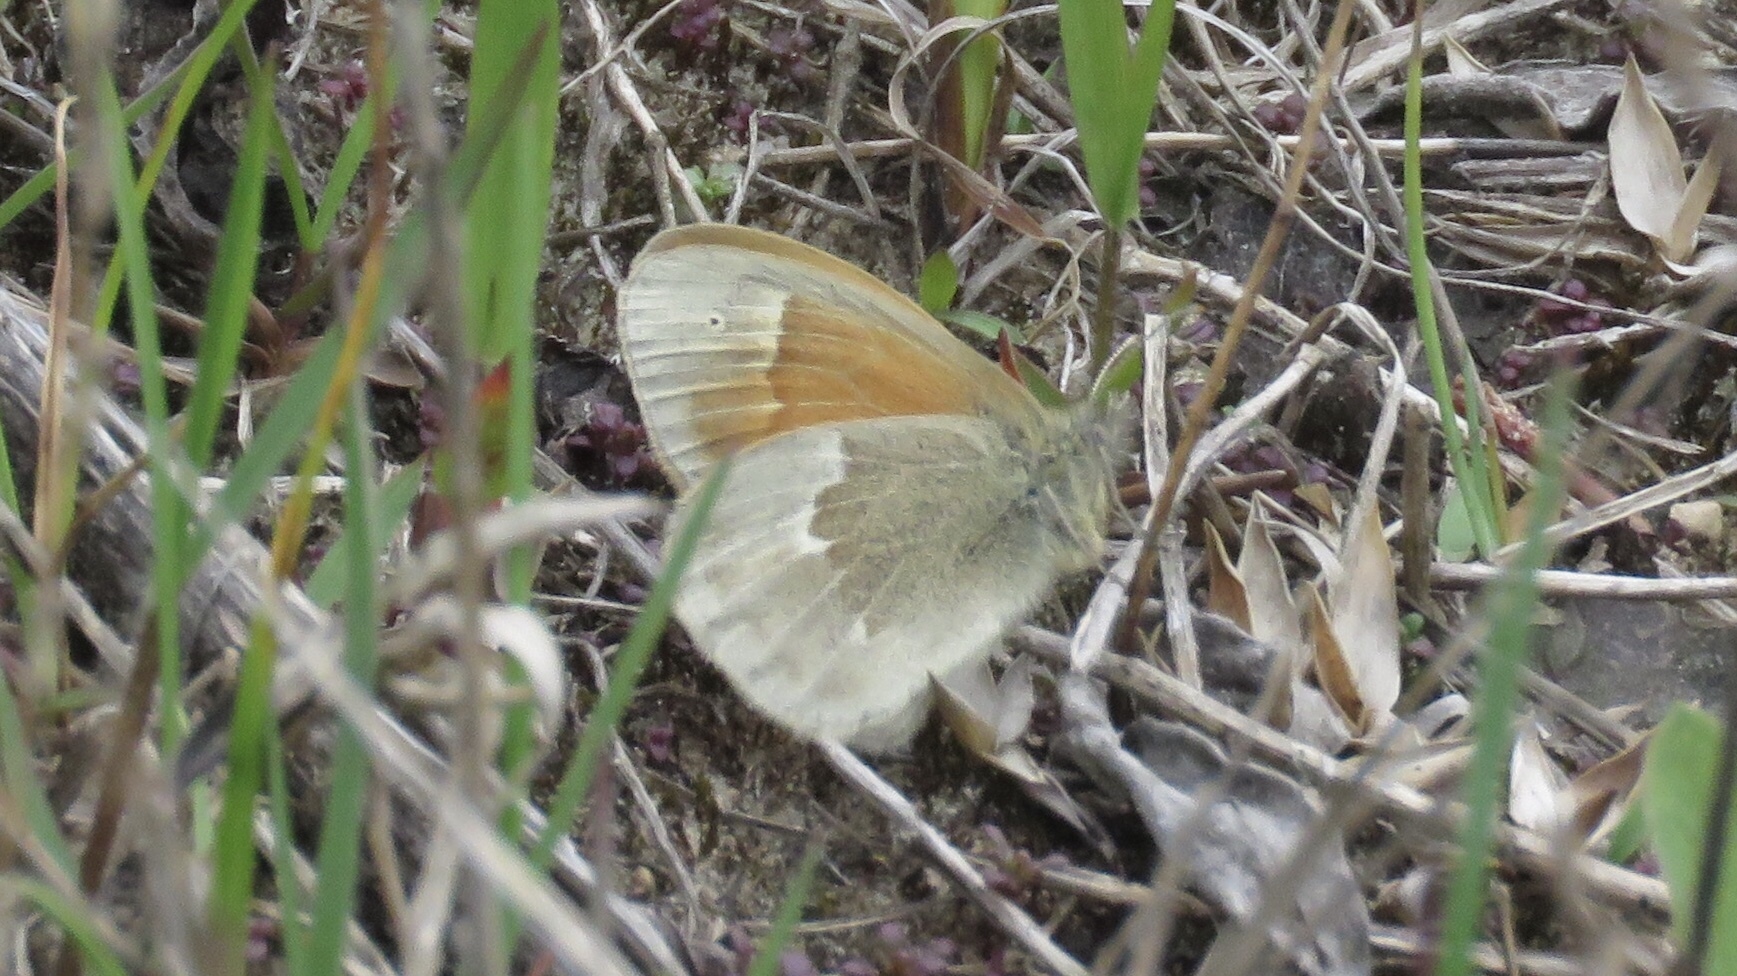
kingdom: Animalia
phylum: Arthropoda
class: Insecta
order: Lepidoptera
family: Nymphalidae
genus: Coenonympha
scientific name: Coenonympha california
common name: Common ringlet
